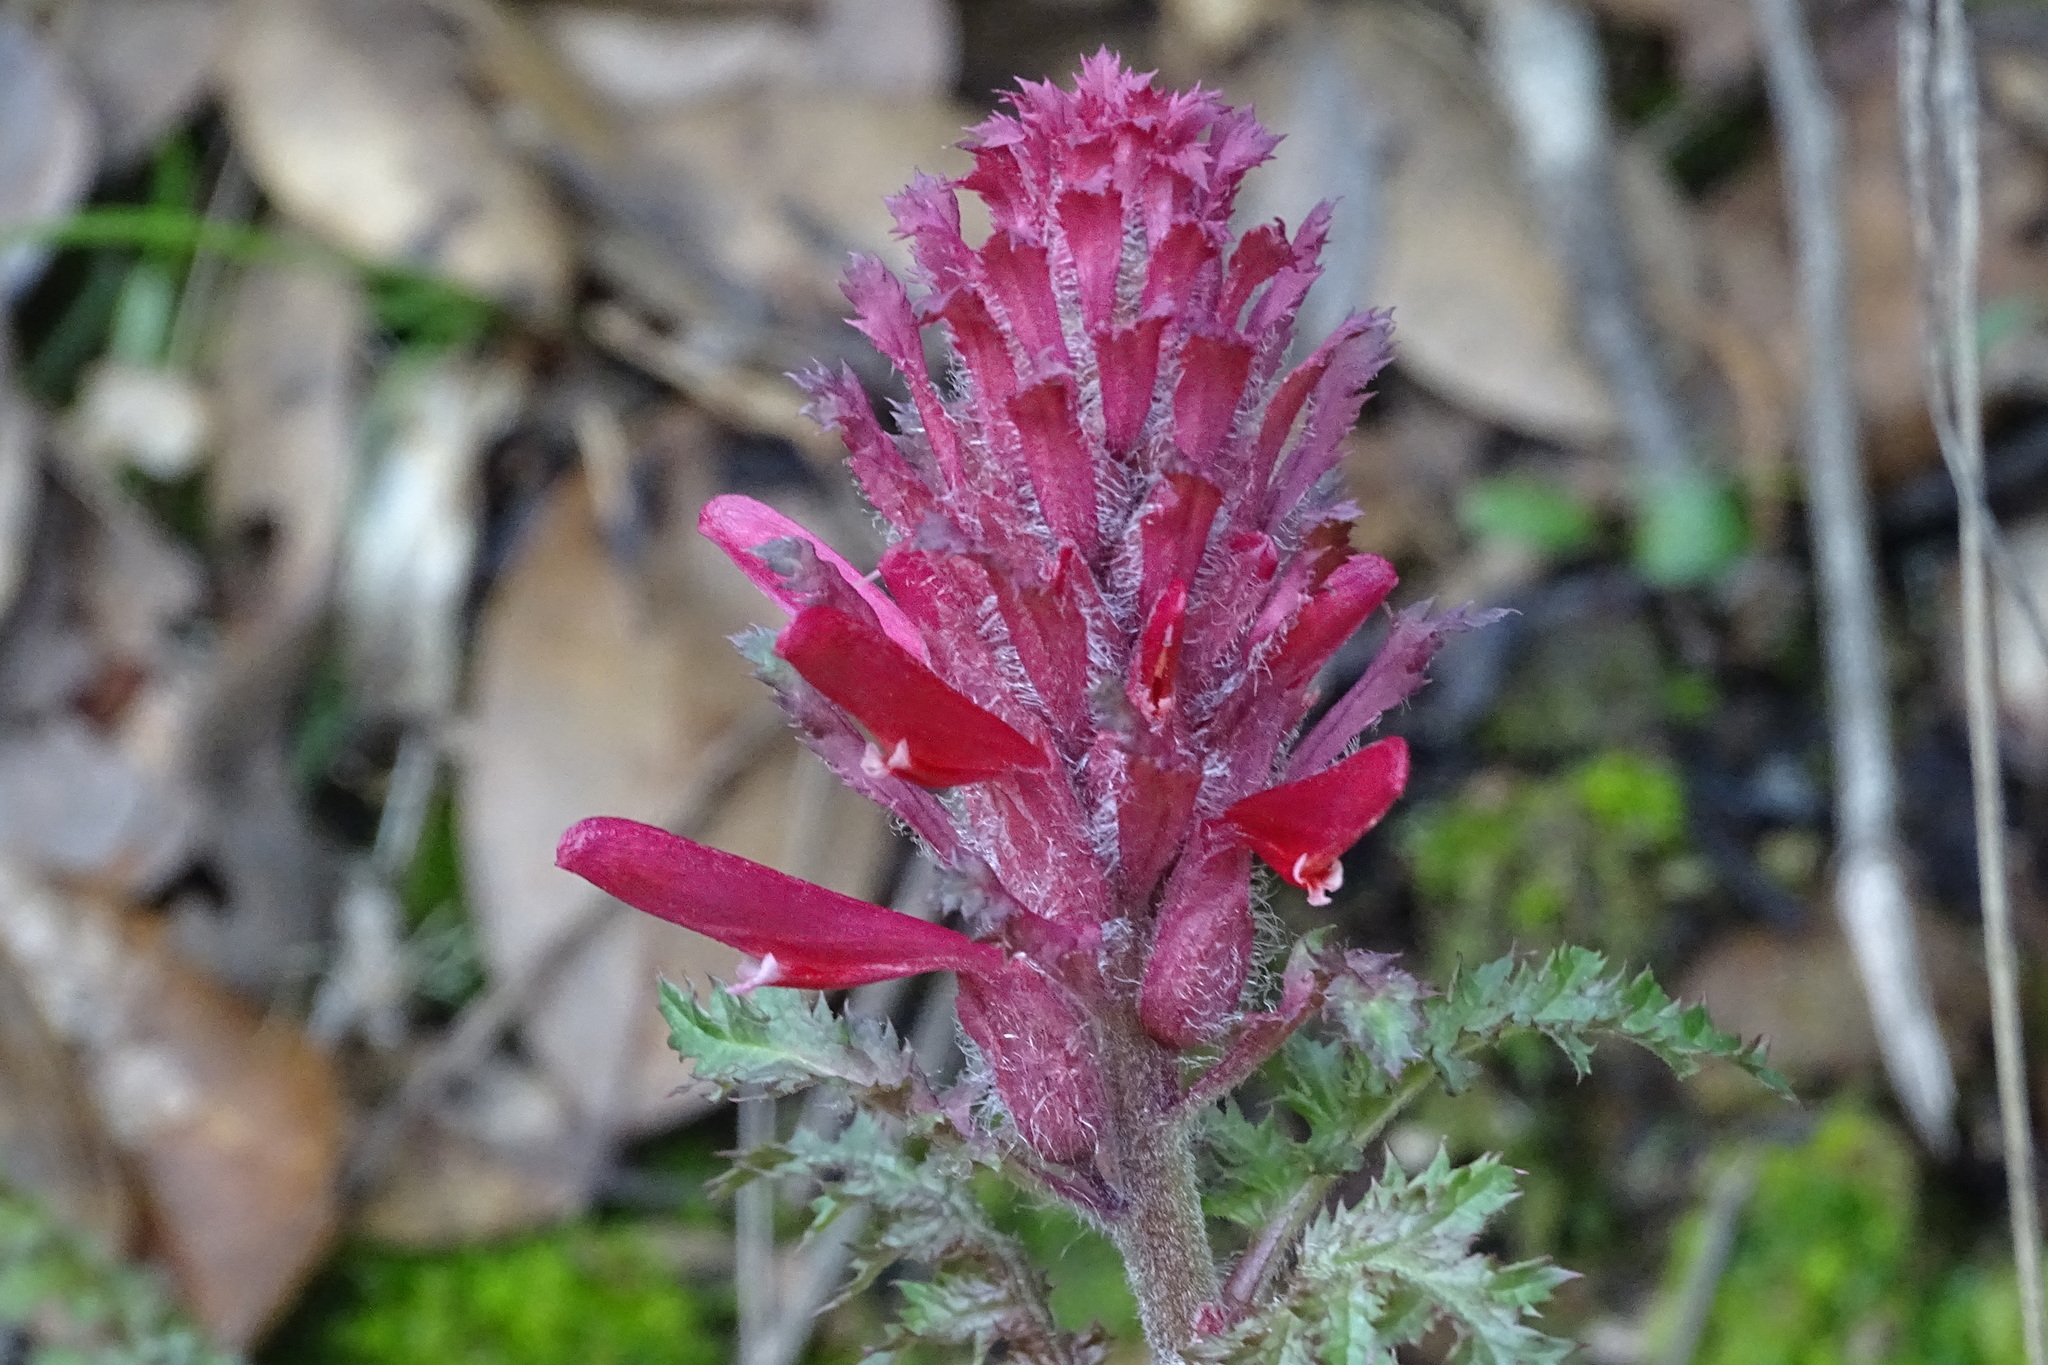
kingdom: Plantae
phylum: Tracheophyta
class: Magnoliopsida
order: Lamiales
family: Orobanchaceae
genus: Pedicularis
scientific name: Pedicularis densiflora
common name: Indian warrior
